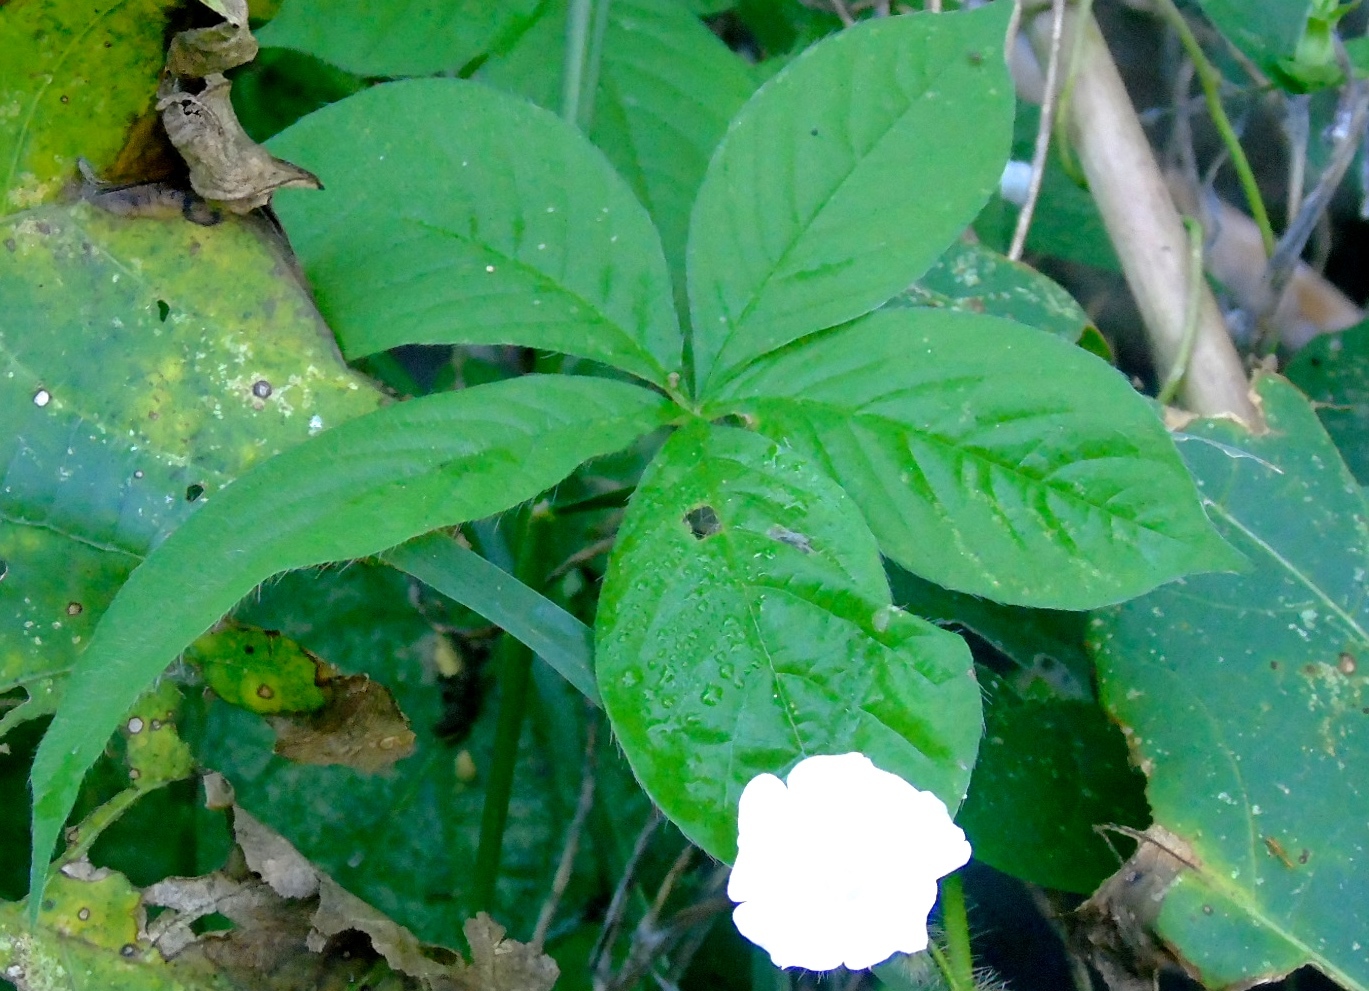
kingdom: Plantae
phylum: Tracheophyta
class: Magnoliopsida
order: Solanales
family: Convolvulaceae
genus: Distimake
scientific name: Distimake aegyptius
